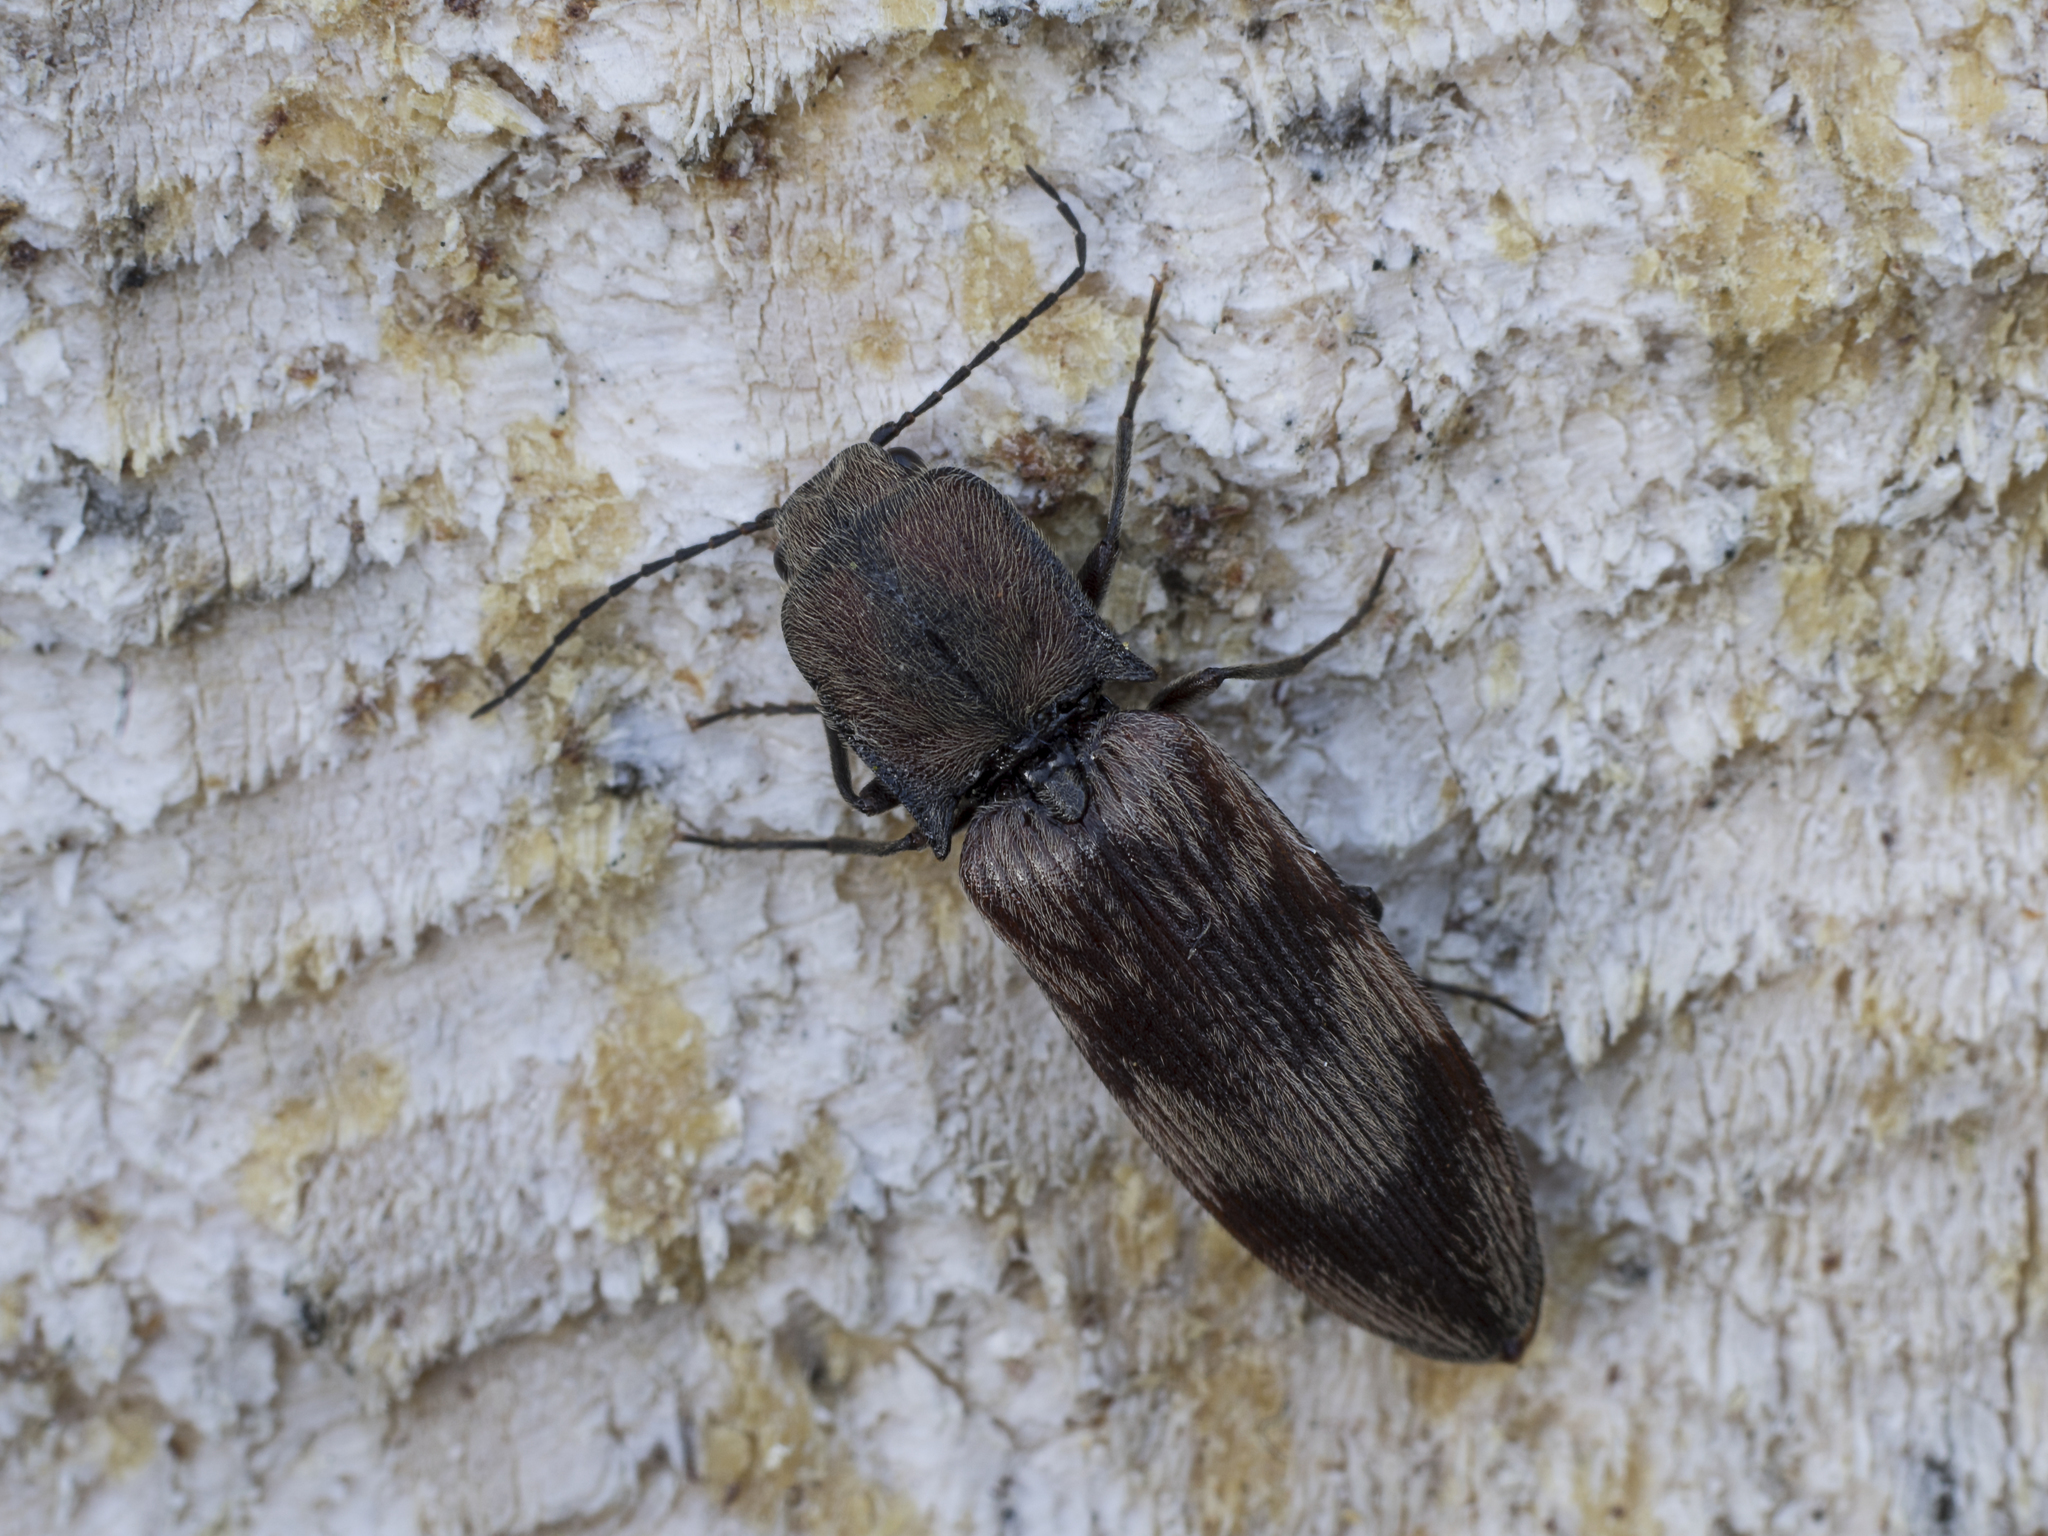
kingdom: Animalia
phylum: Arthropoda
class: Insecta
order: Coleoptera
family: Elateridae
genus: Diacanthous
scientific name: Diacanthous undulatus
